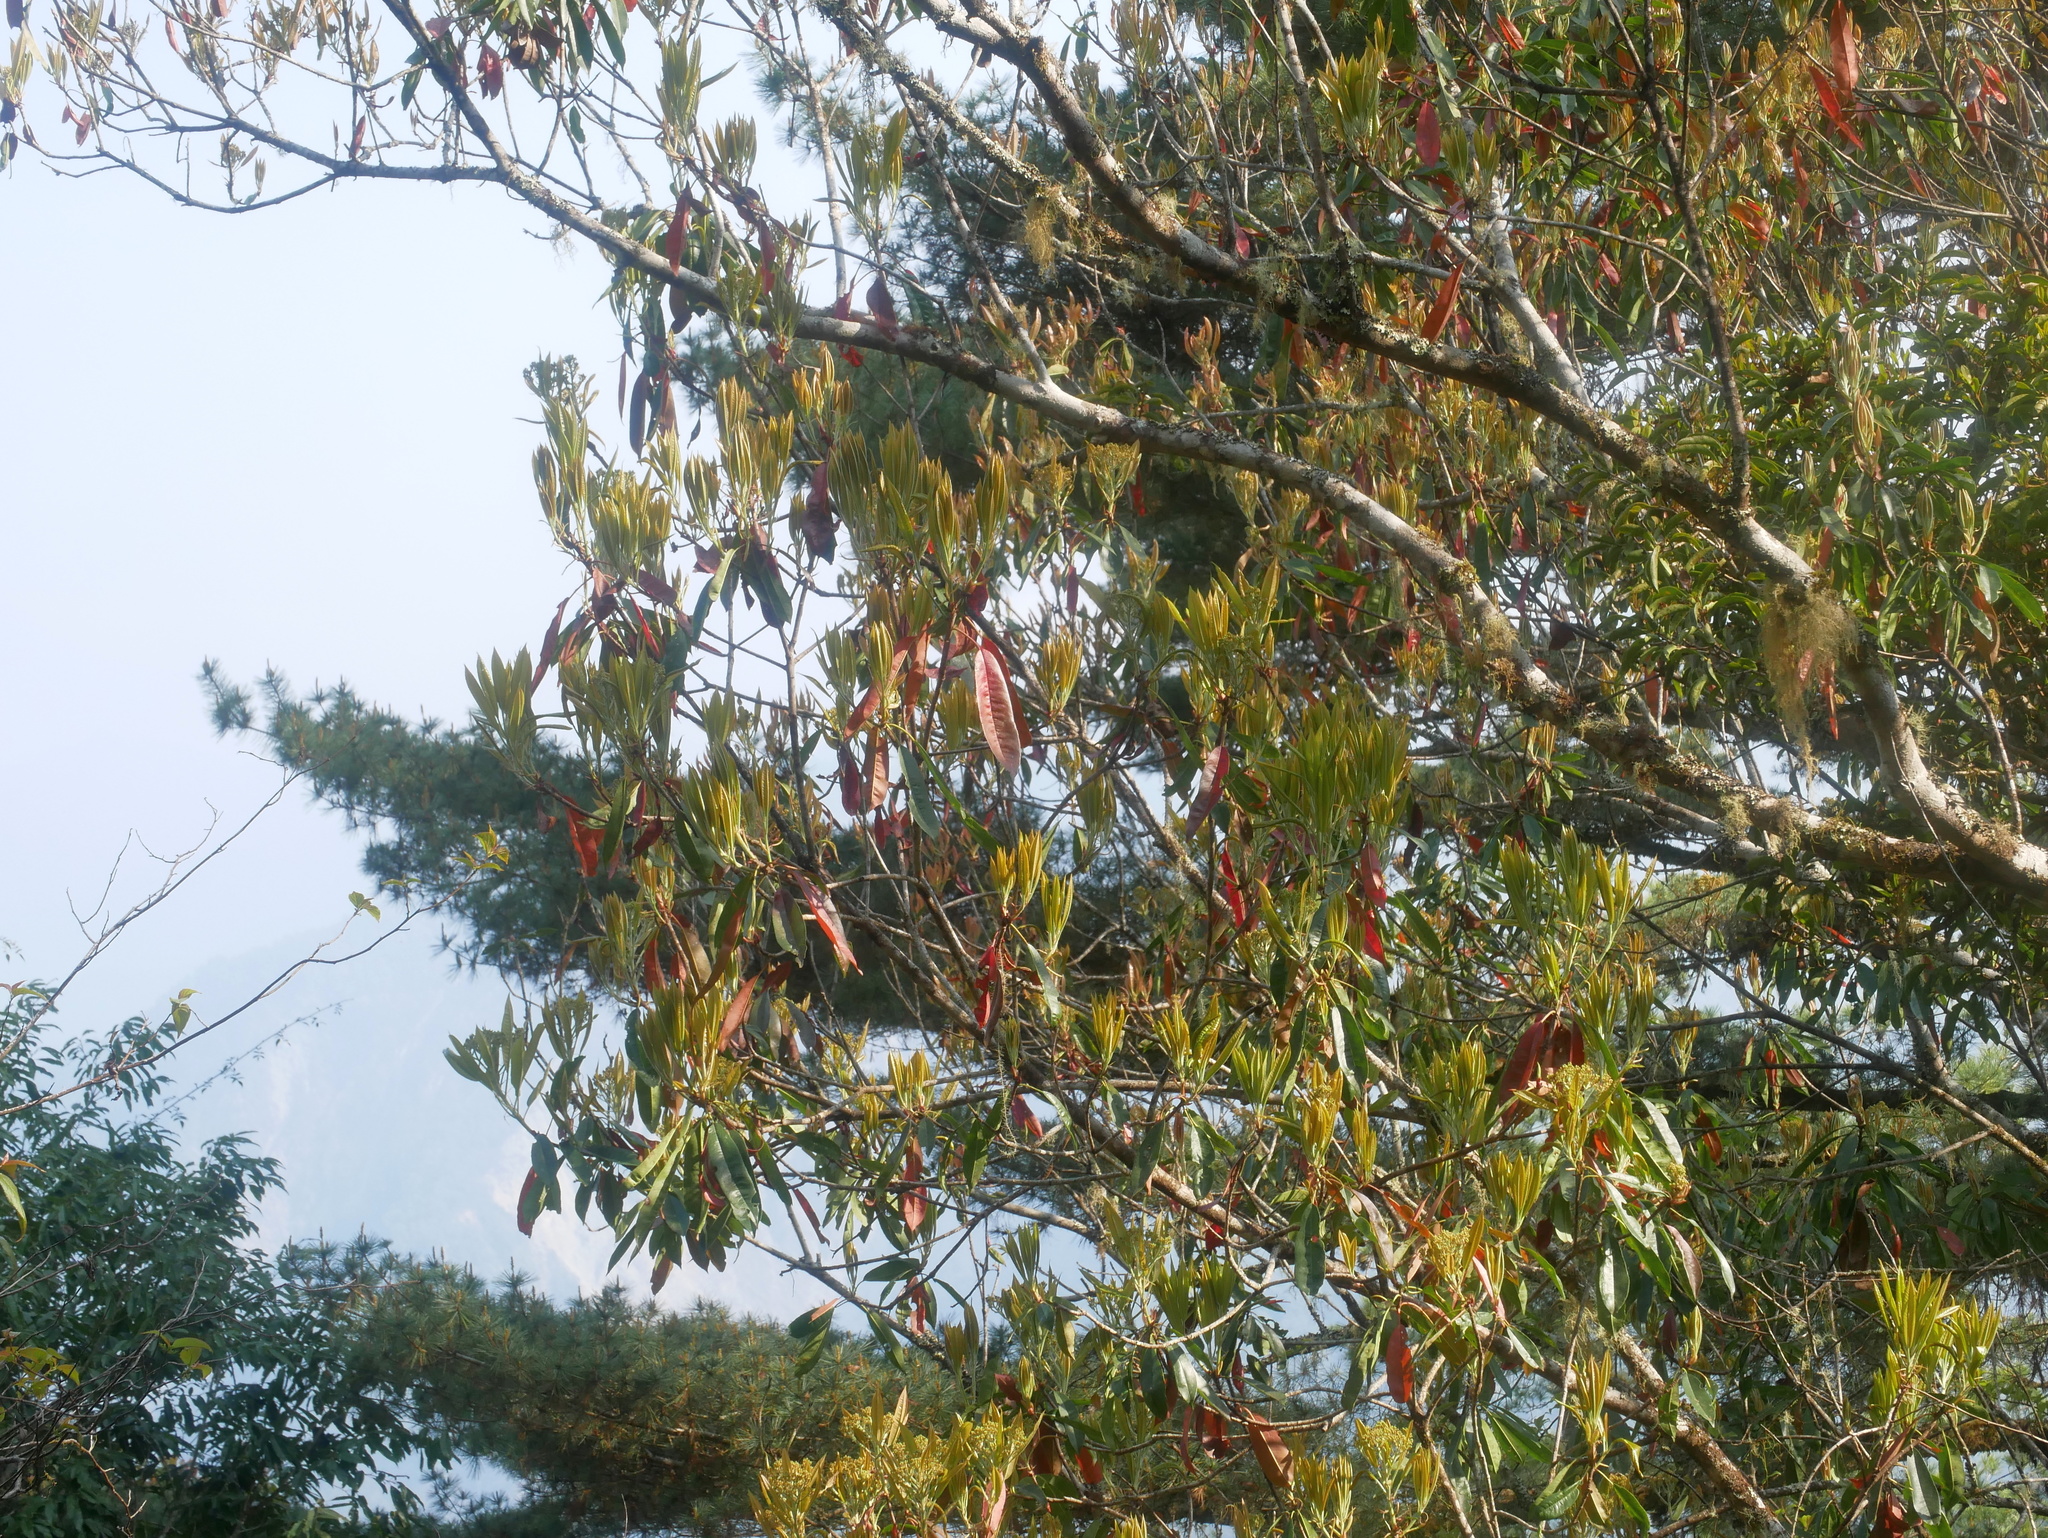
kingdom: Plantae
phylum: Tracheophyta
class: Magnoliopsida
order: Rosales
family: Rosaceae
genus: Photinia
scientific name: Photinia serratifolia
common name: Taiwanese photinia
